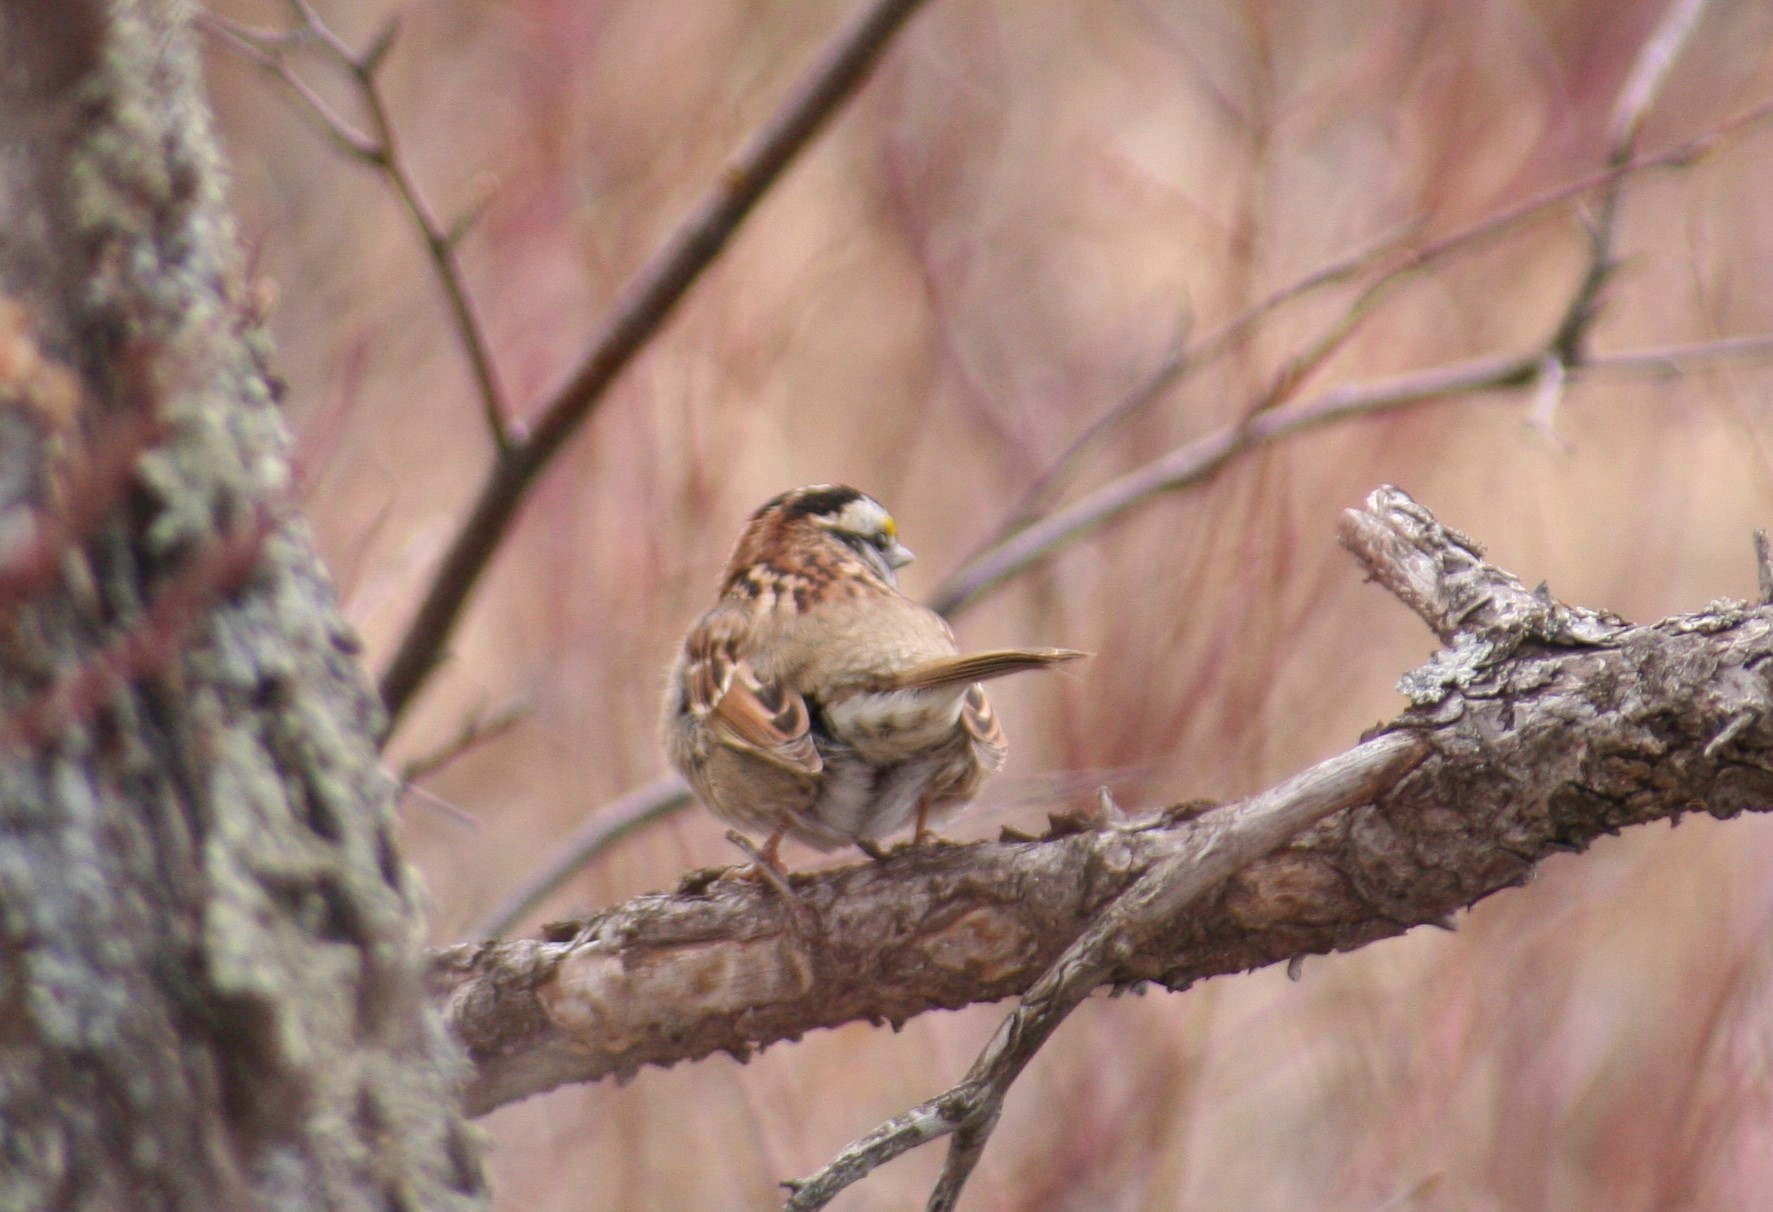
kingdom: Animalia
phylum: Chordata
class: Aves
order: Passeriformes
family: Passerellidae
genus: Zonotrichia
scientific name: Zonotrichia albicollis
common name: White-throated sparrow
